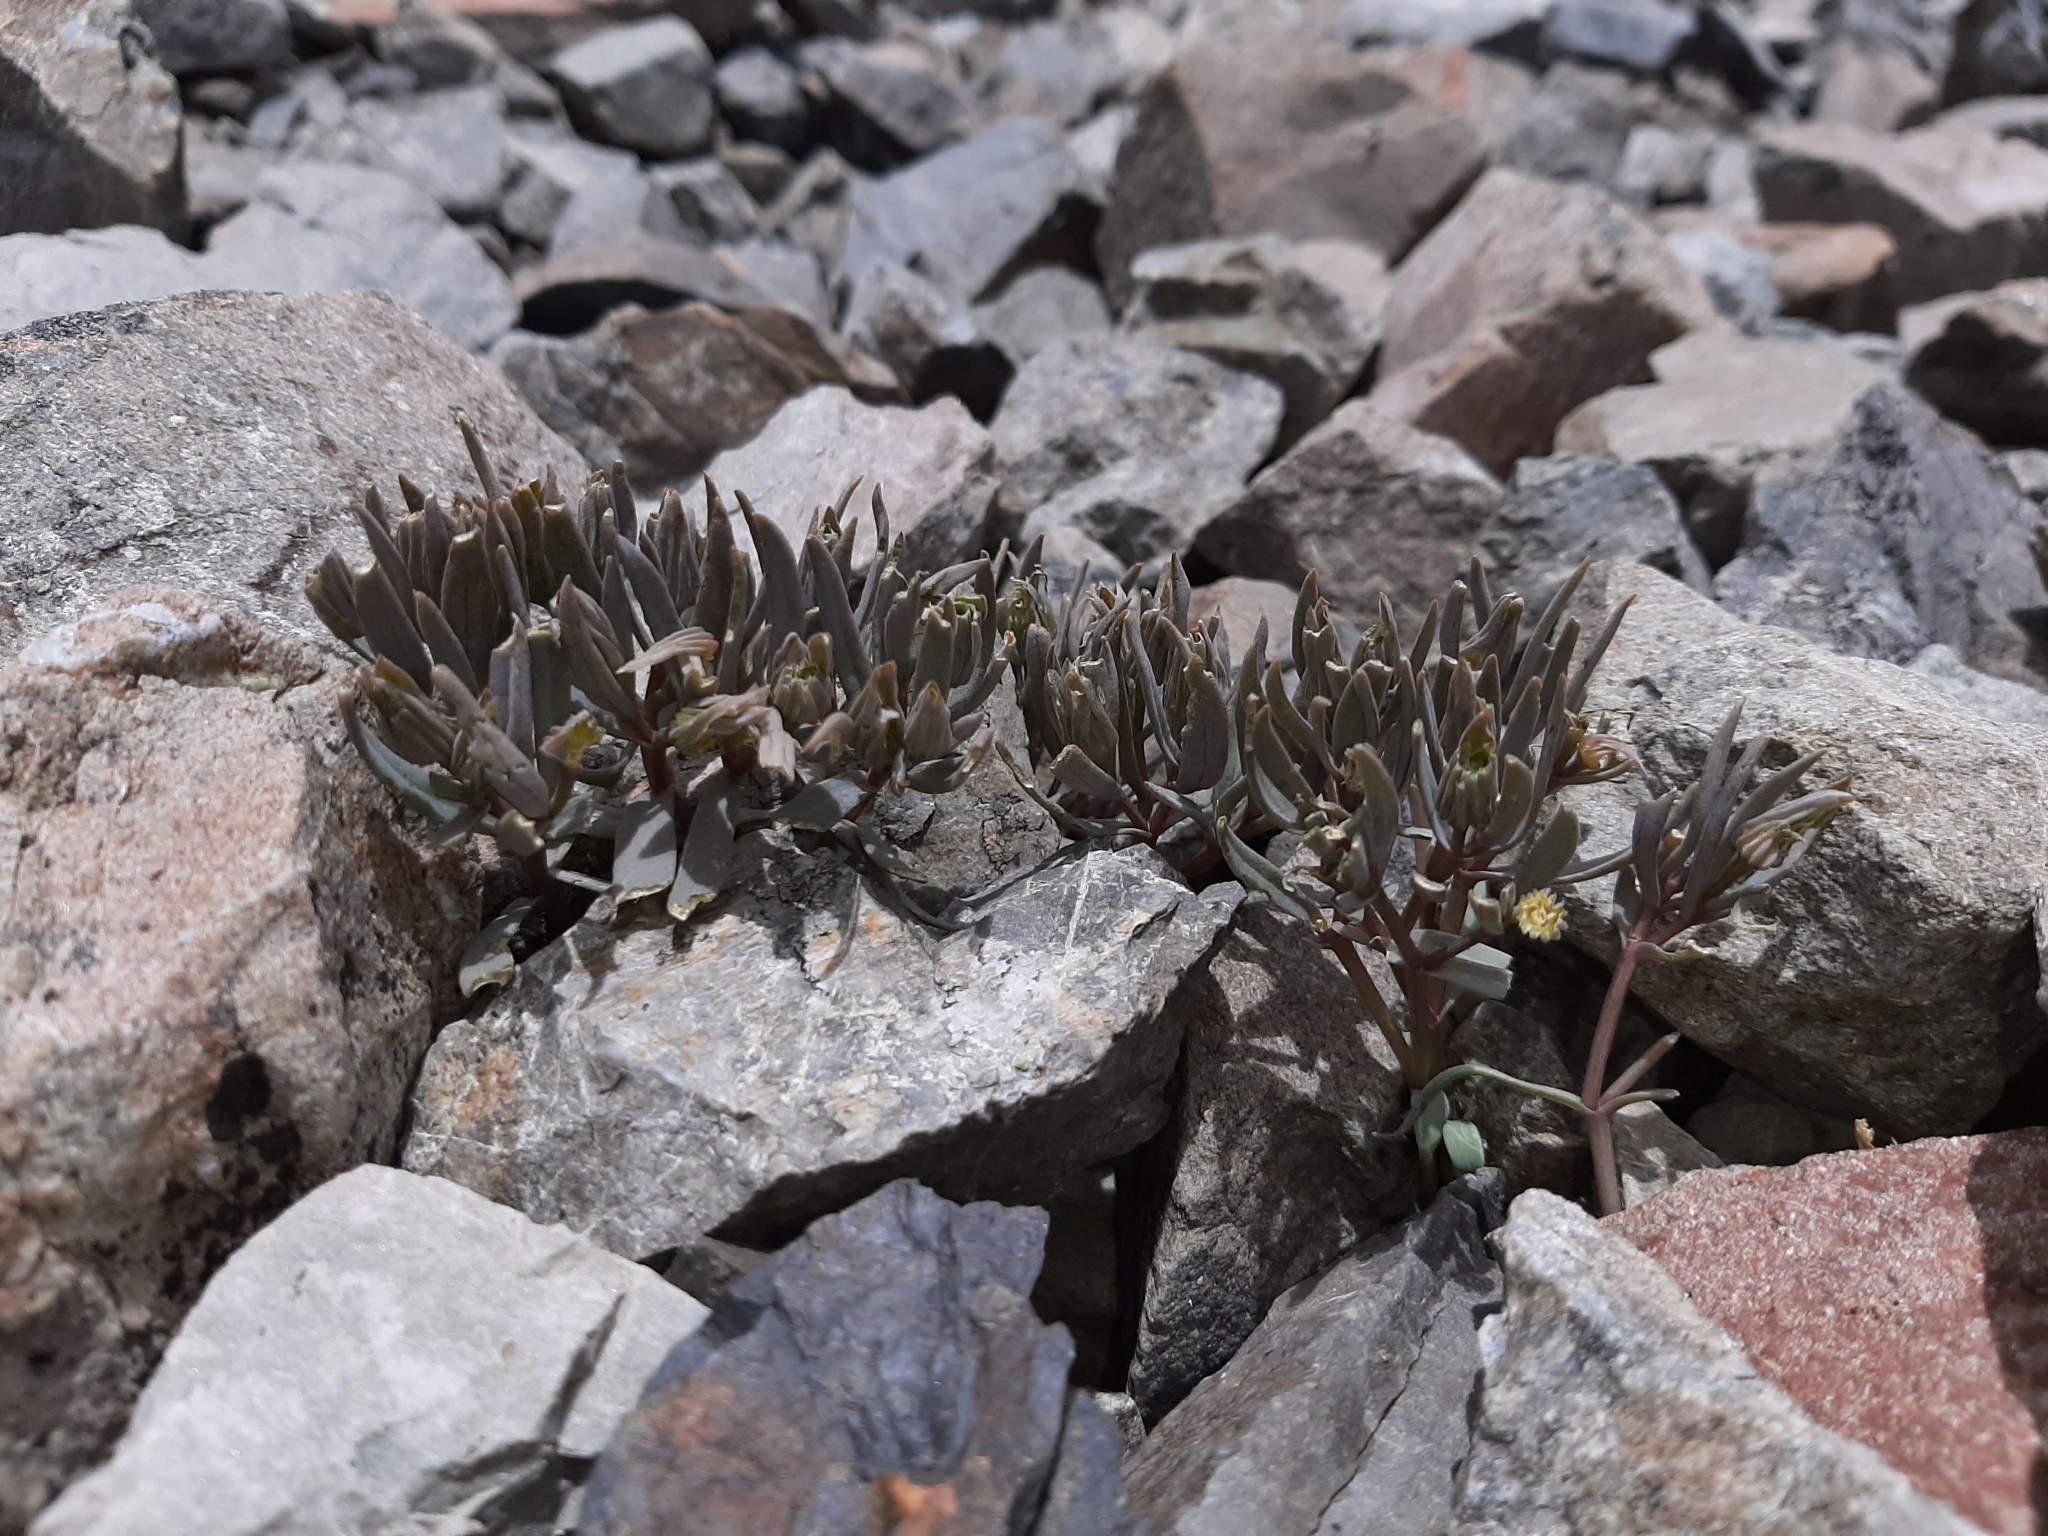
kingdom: Plantae
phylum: Tracheophyta
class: Magnoliopsida
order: Caryophyllales
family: Caryophyllaceae
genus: Stellaria
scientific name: Stellaria roughii
